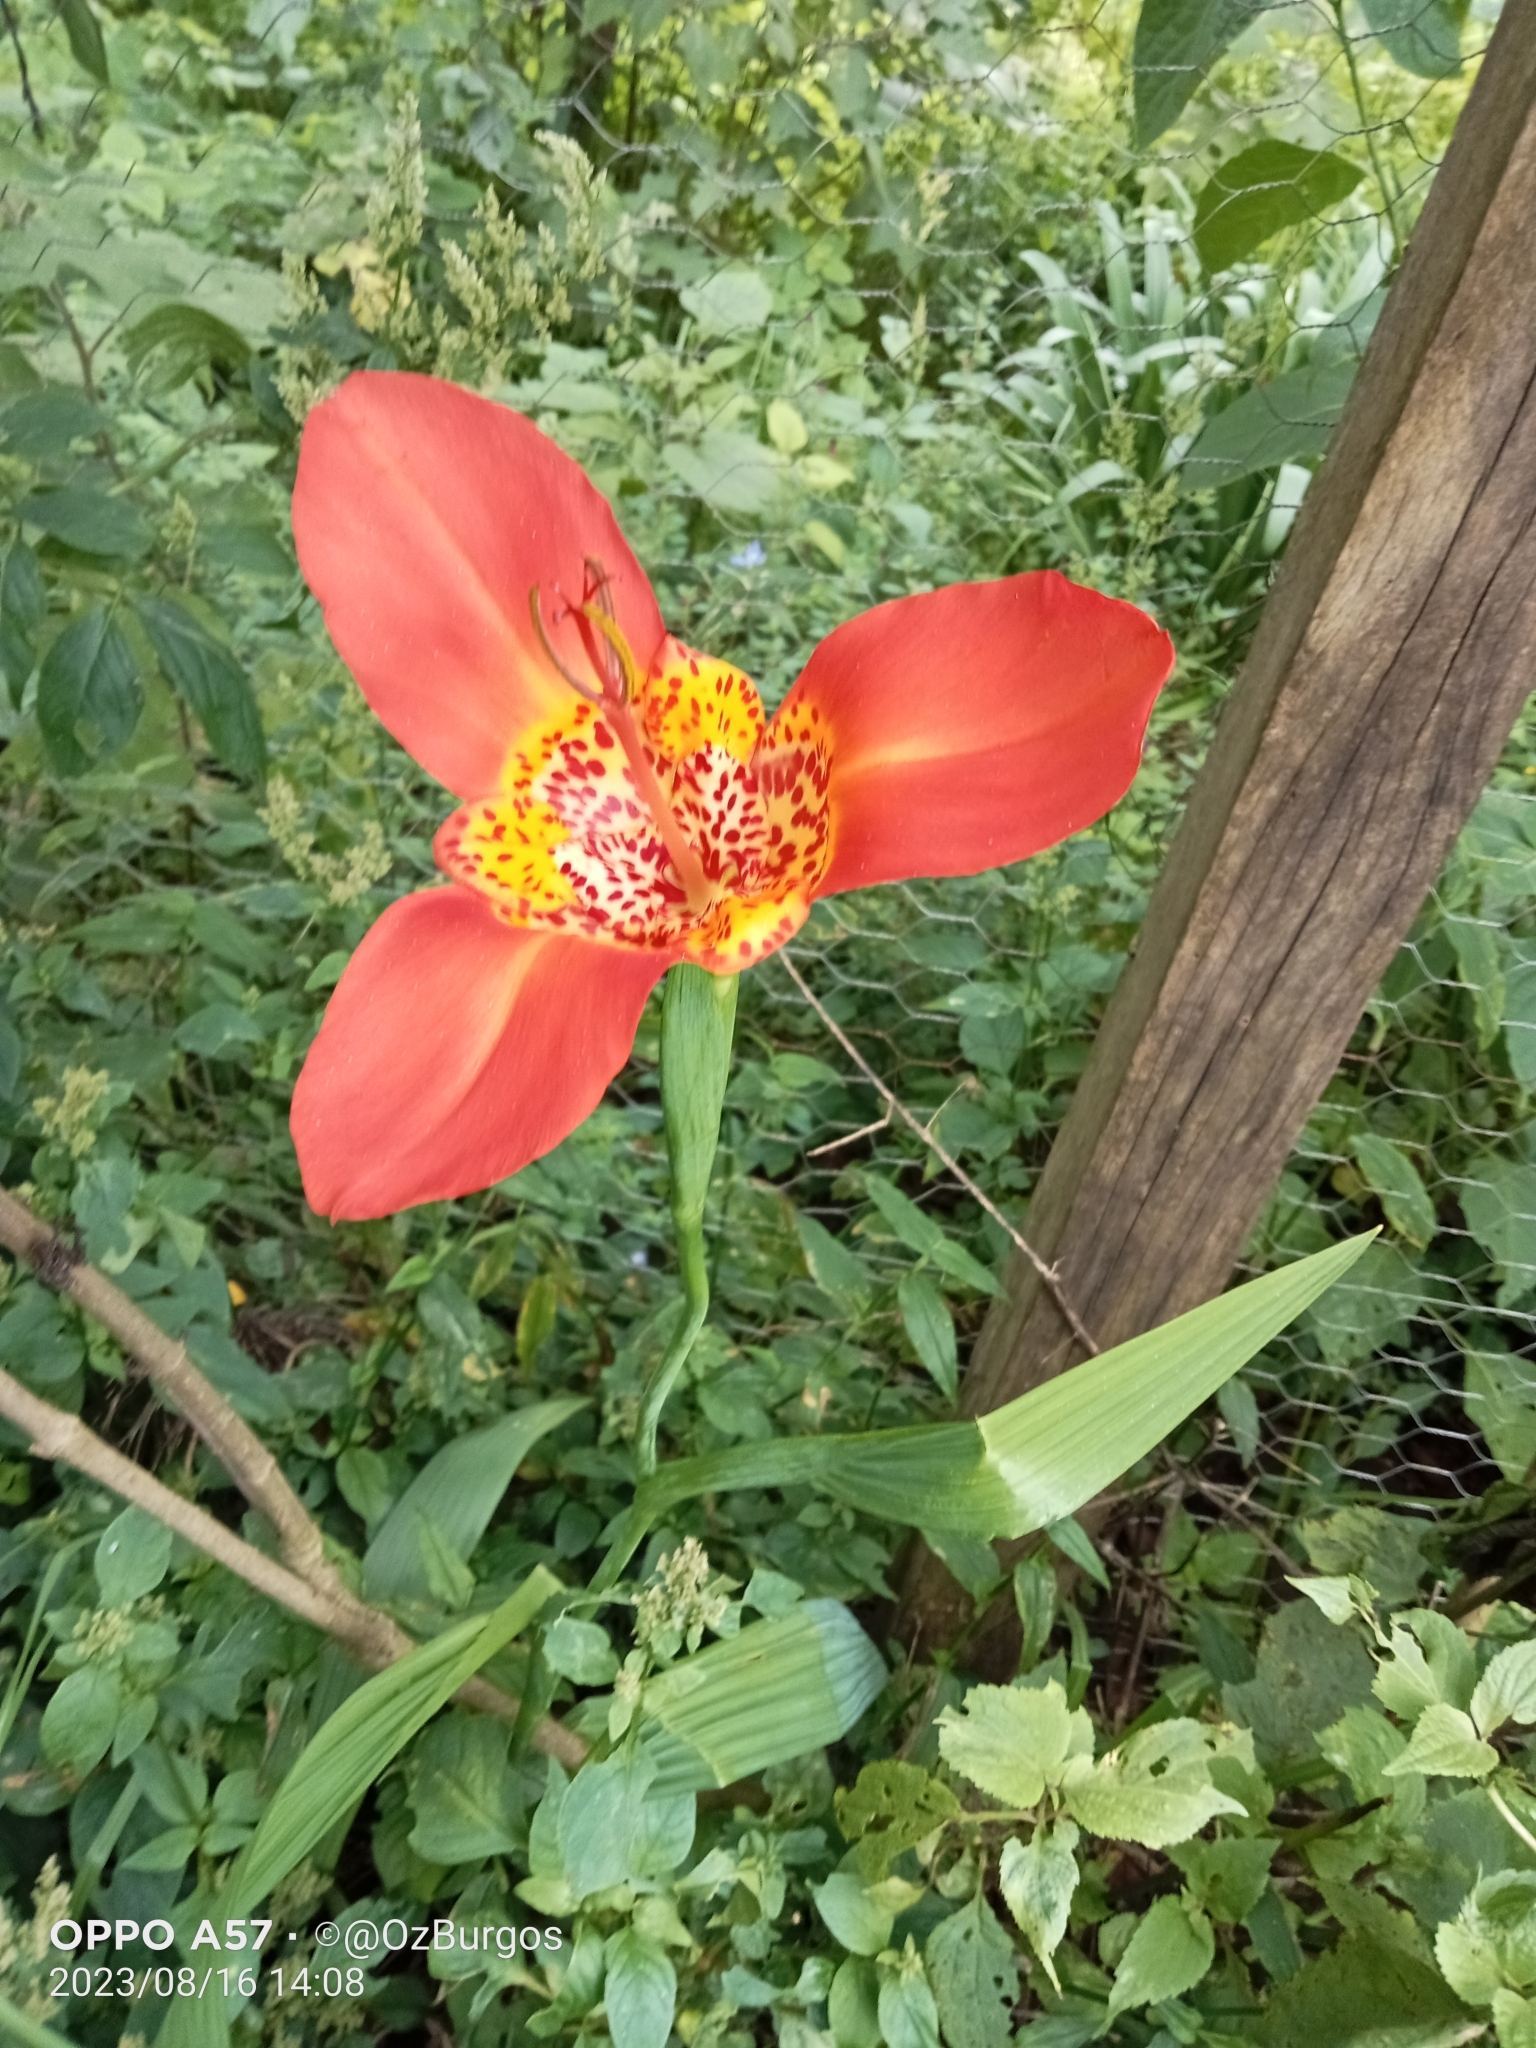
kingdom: Plantae
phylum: Tracheophyta
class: Liliopsida
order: Asparagales
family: Iridaceae
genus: Tigridia
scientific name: Tigridia pavonia
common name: Peacock-flower
